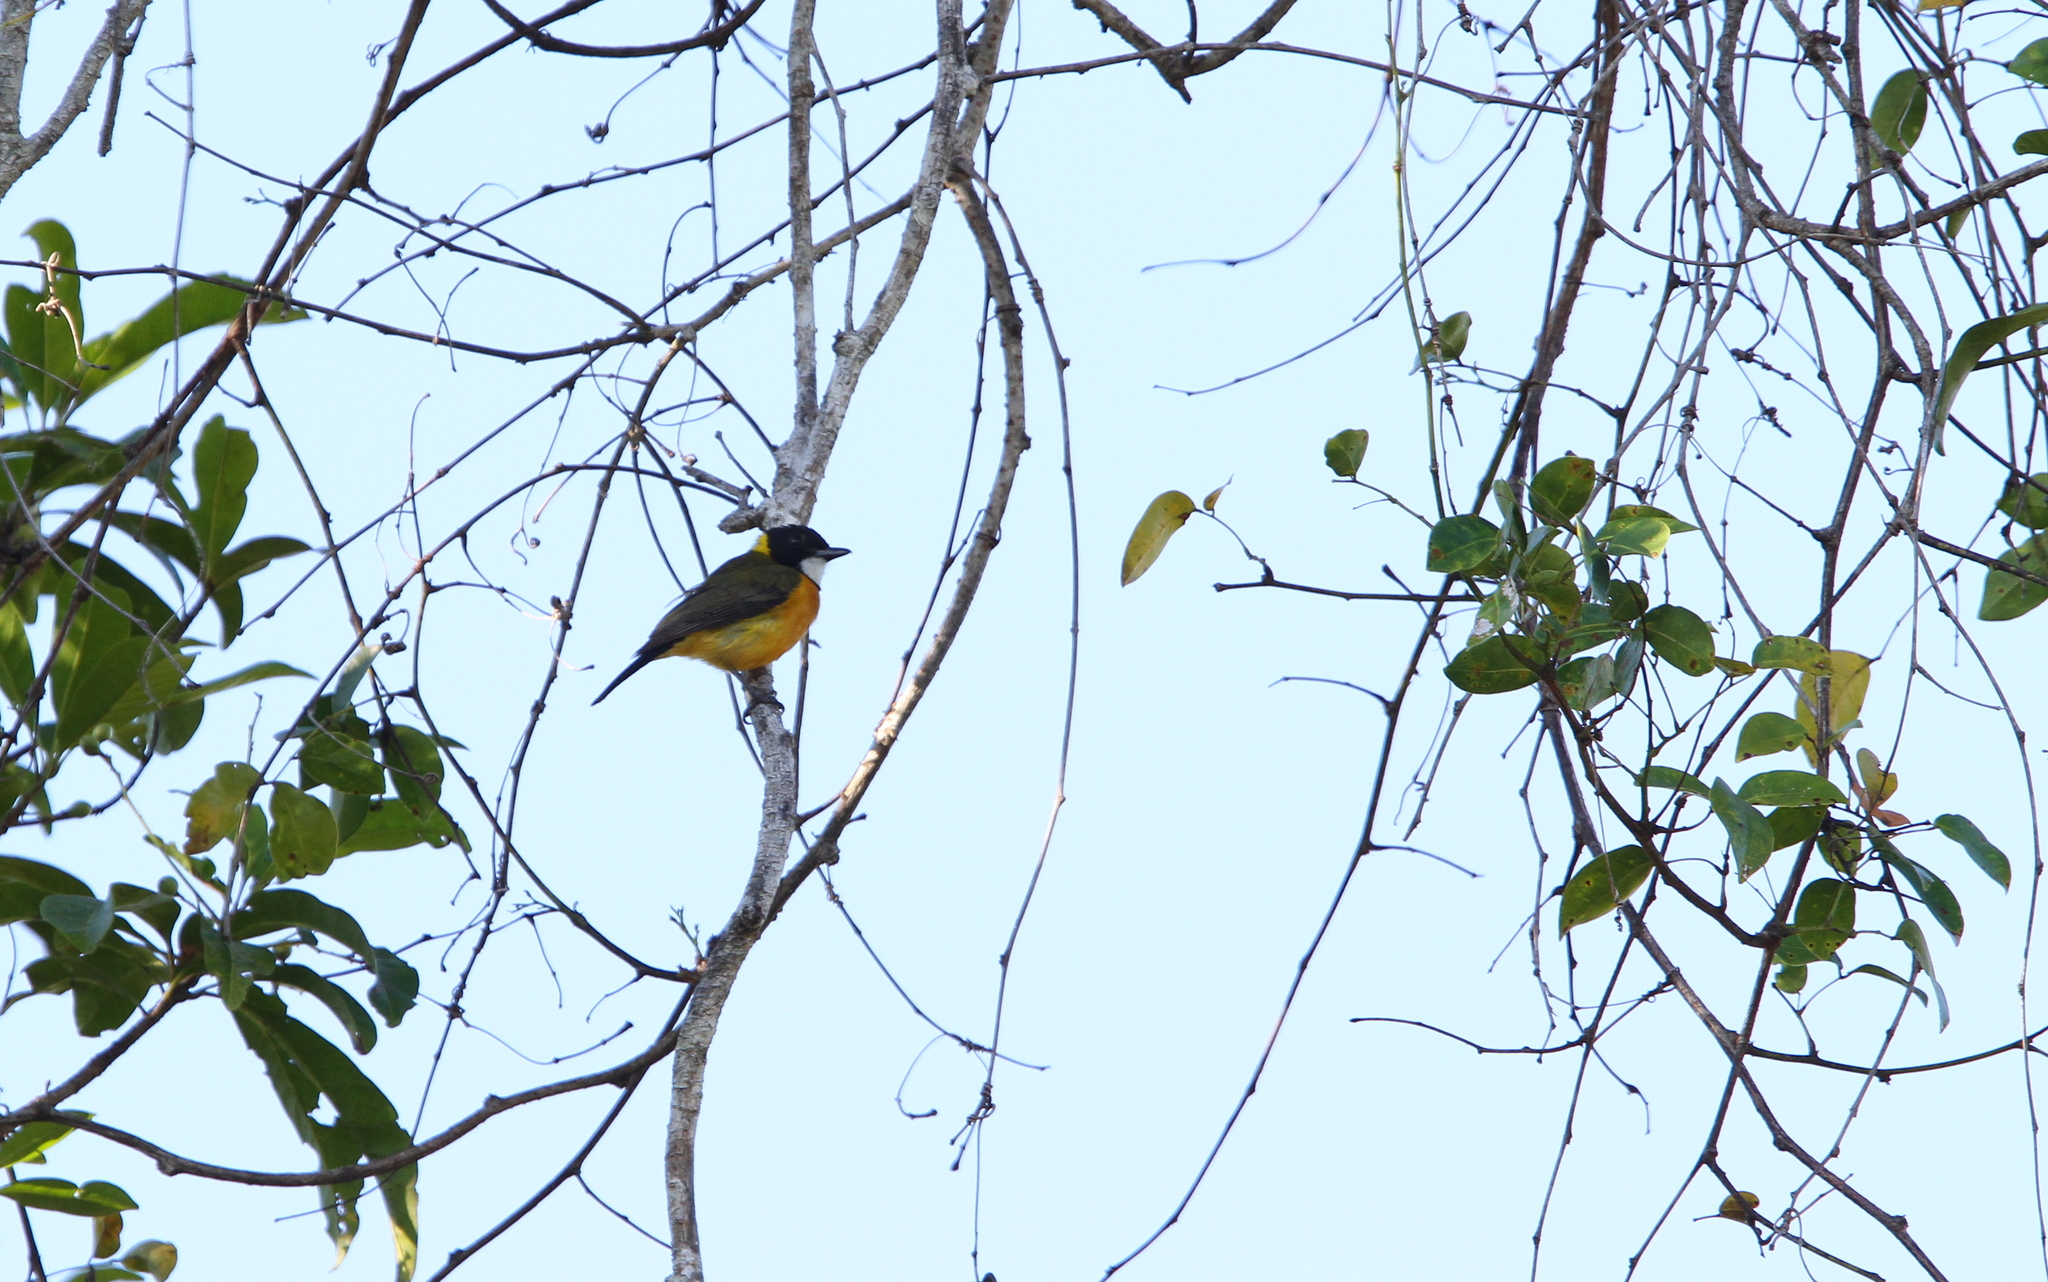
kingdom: Animalia
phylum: Chordata
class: Aves
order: Passeriformes
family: Pachycephalidae
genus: Pachycephala
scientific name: Pachycephala fulvotincta
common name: Rusty-breasted whistler
